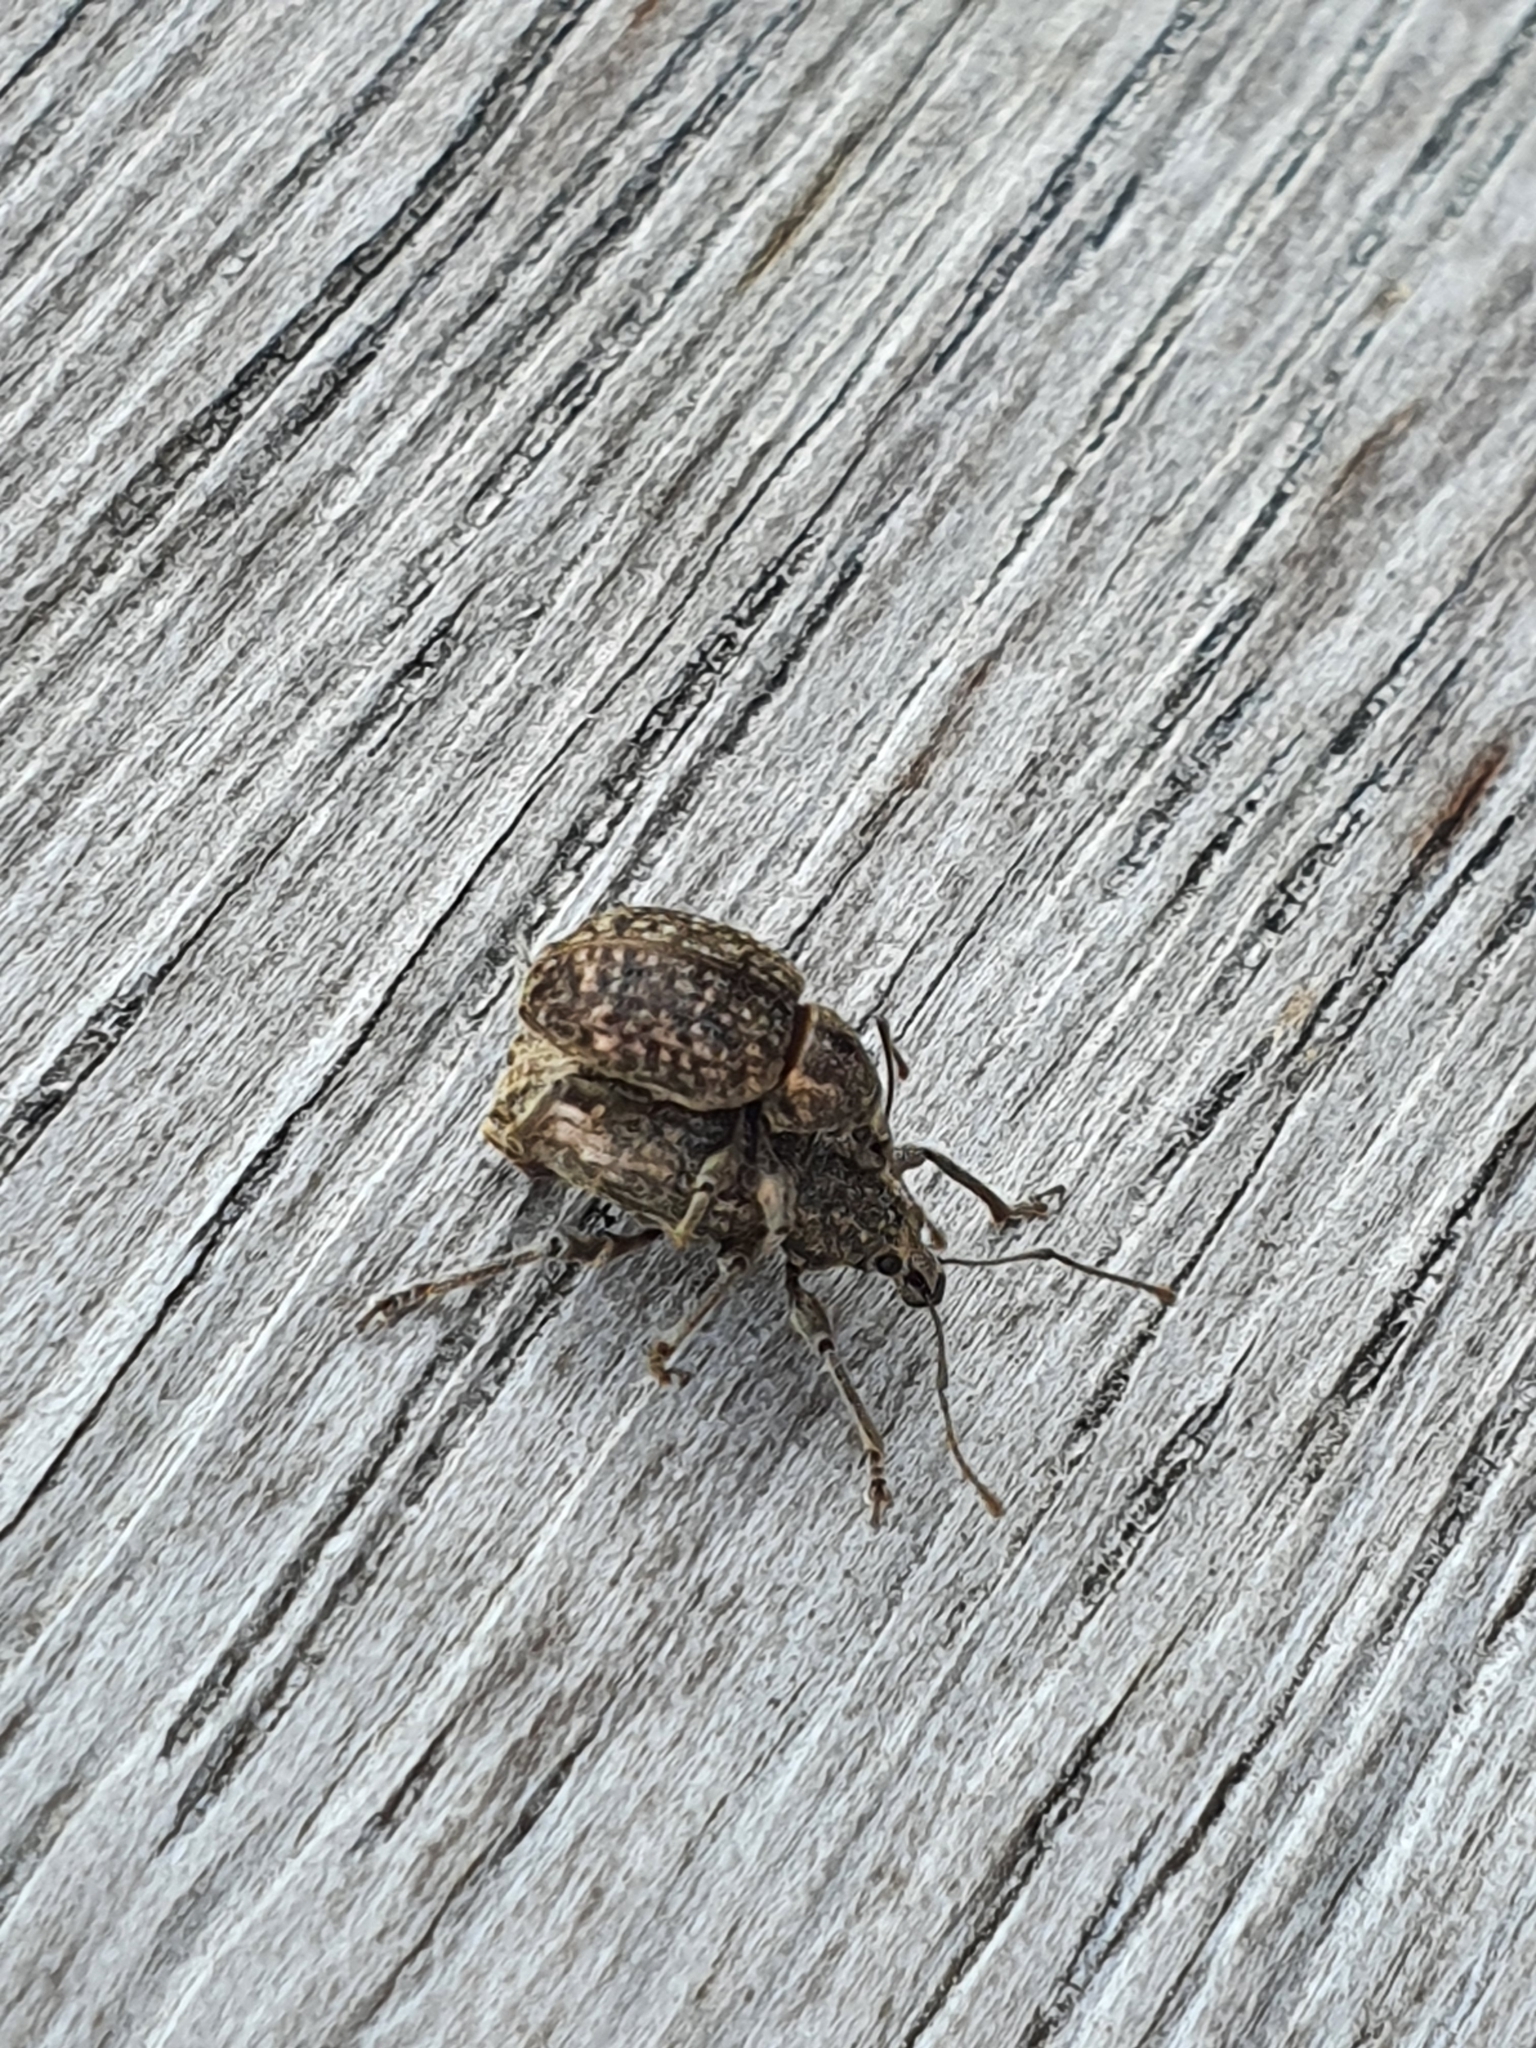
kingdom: Animalia
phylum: Arthropoda
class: Insecta
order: Coleoptera
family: Curculionidae
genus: Phlyctinus
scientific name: Phlyctinus callosus
